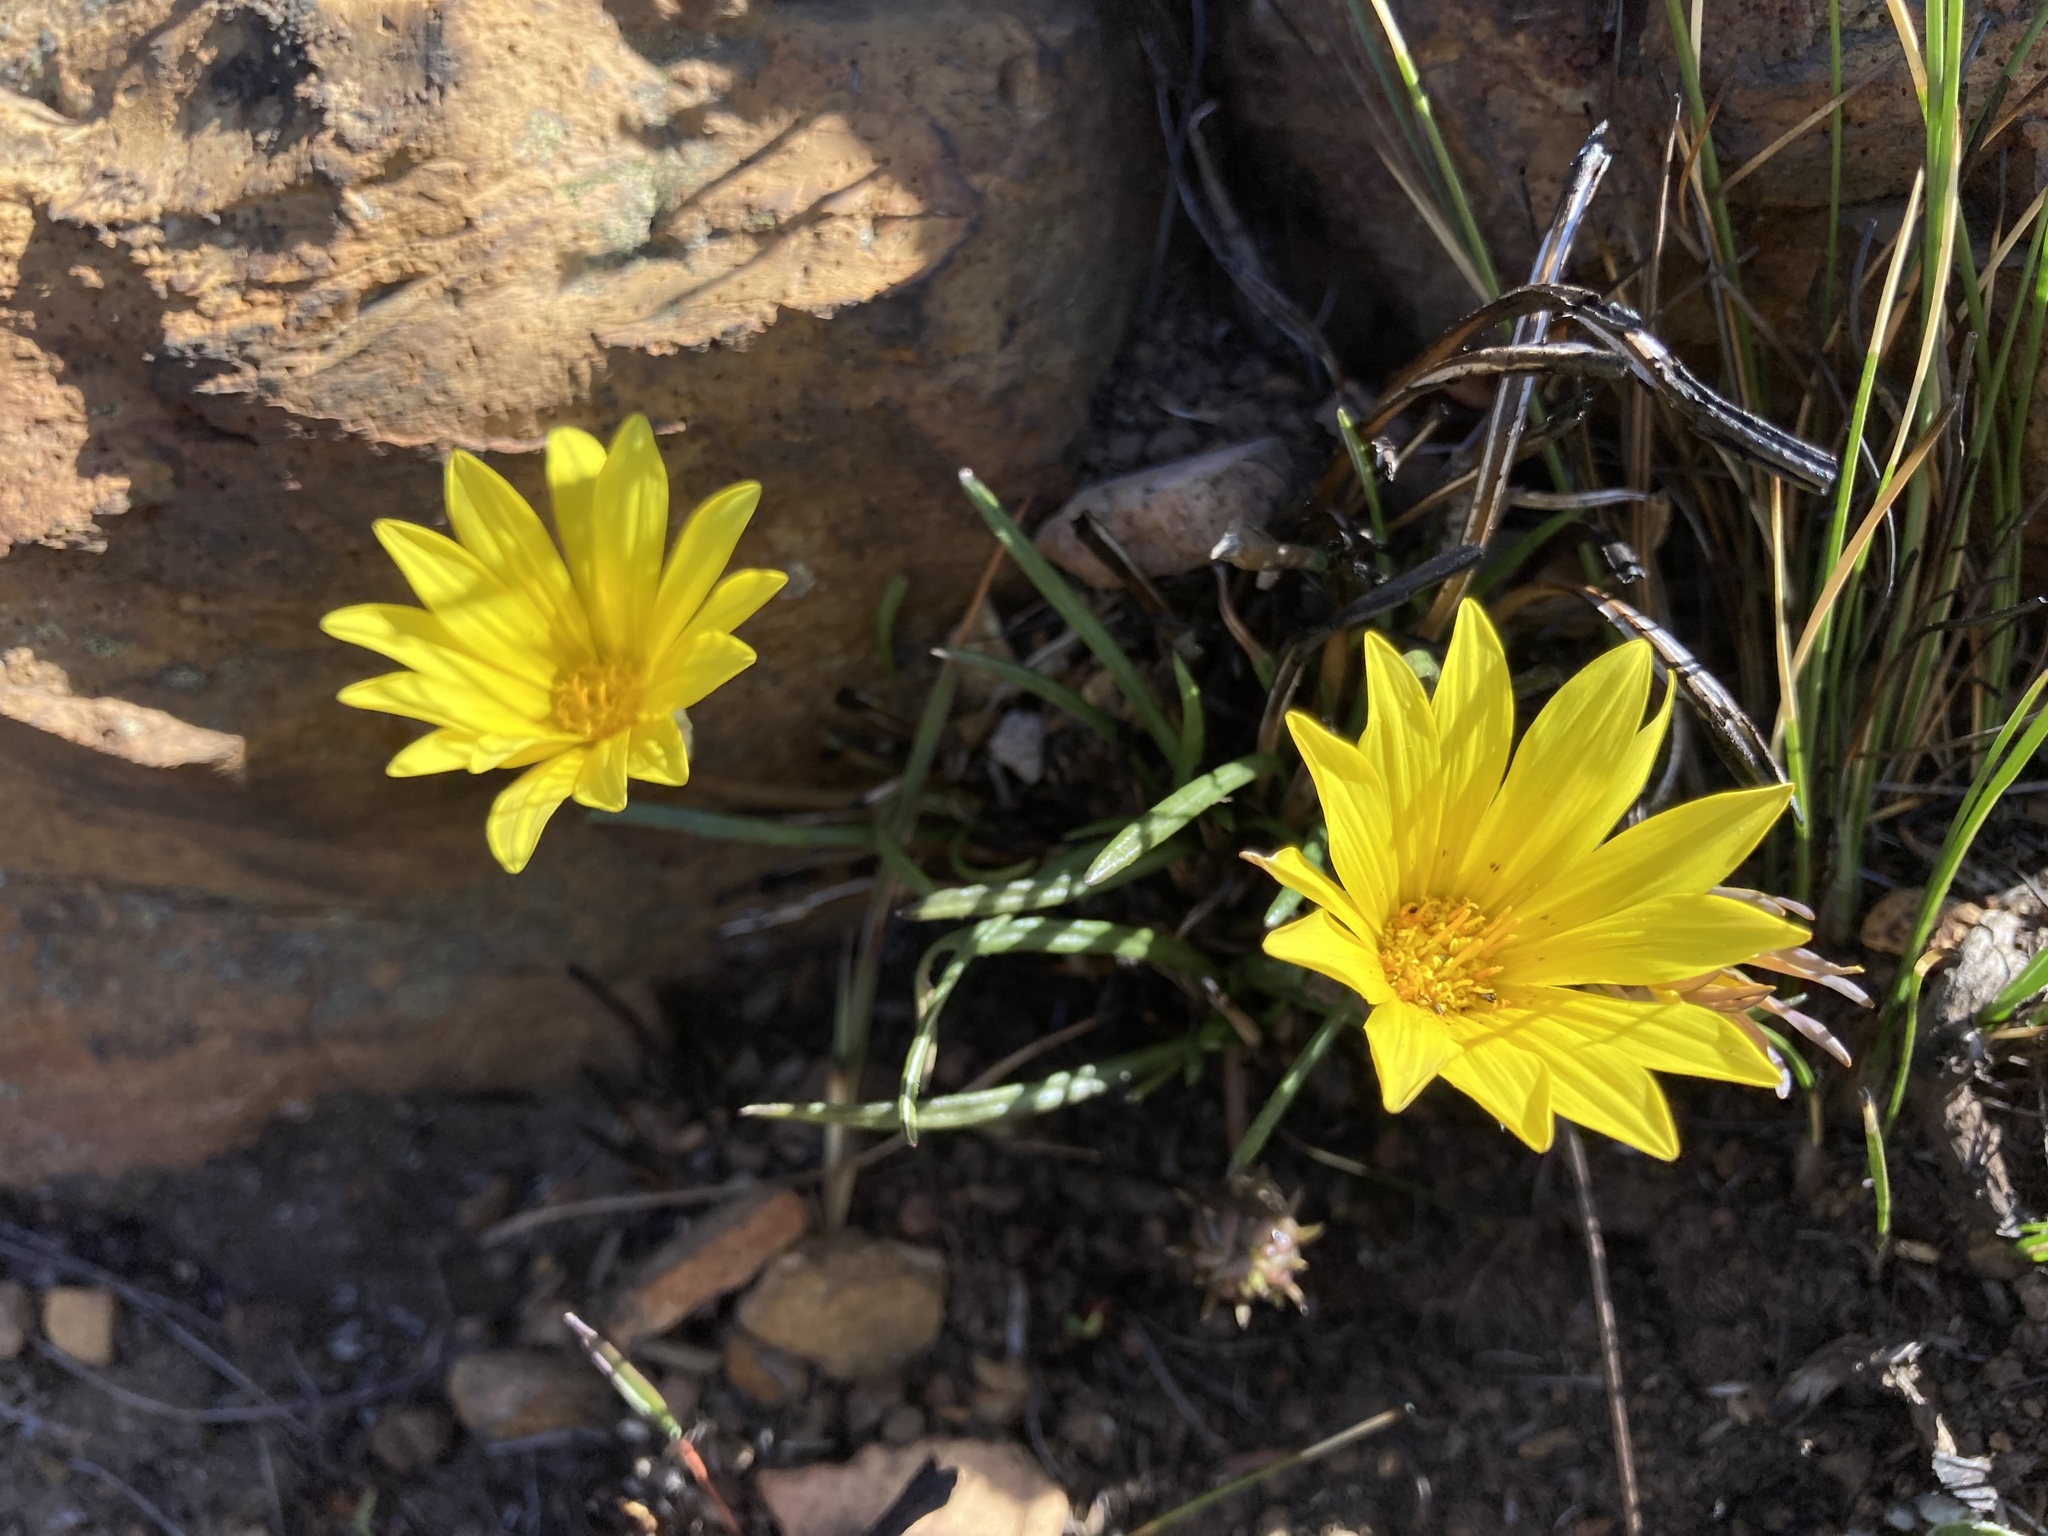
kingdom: Plantae
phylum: Tracheophyta
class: Magnoliopsida
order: Asterales
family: Asteraceae
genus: Gazania
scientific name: Gazania krebsiana
